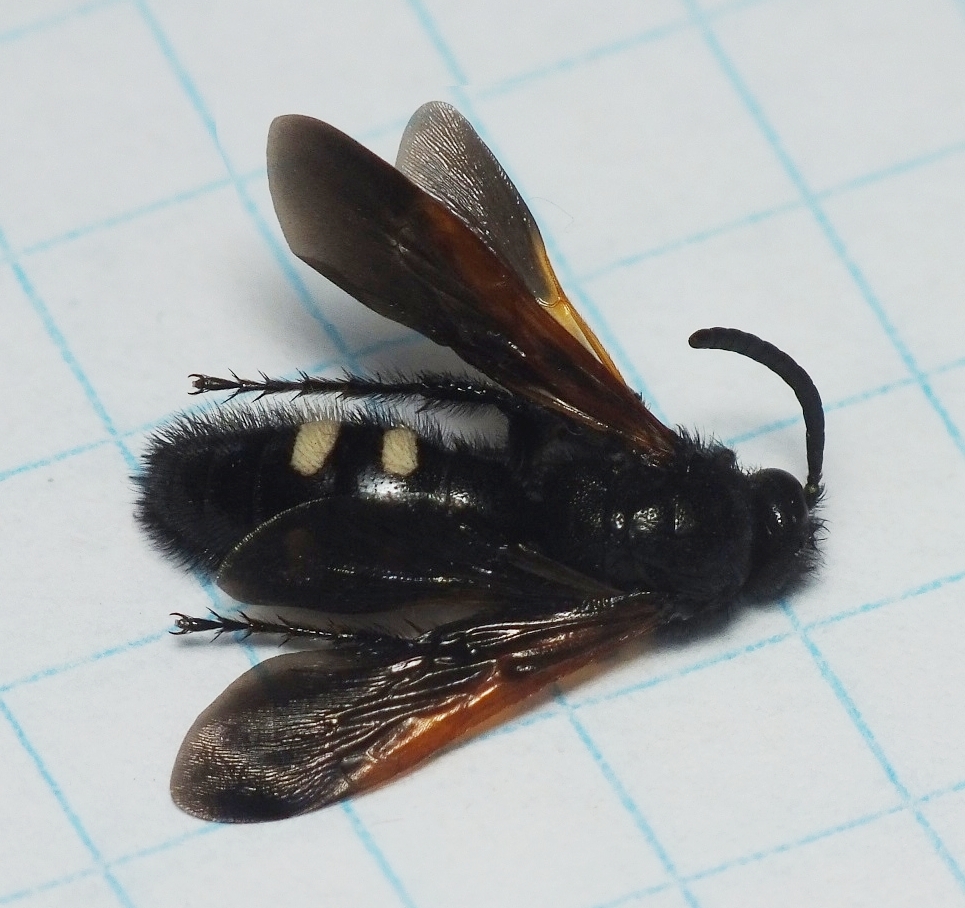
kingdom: Animalia
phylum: Arthropoda
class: Insecta
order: Hymenoptera
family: Vespidae
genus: Vespa
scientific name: Vespa sexmaculata
